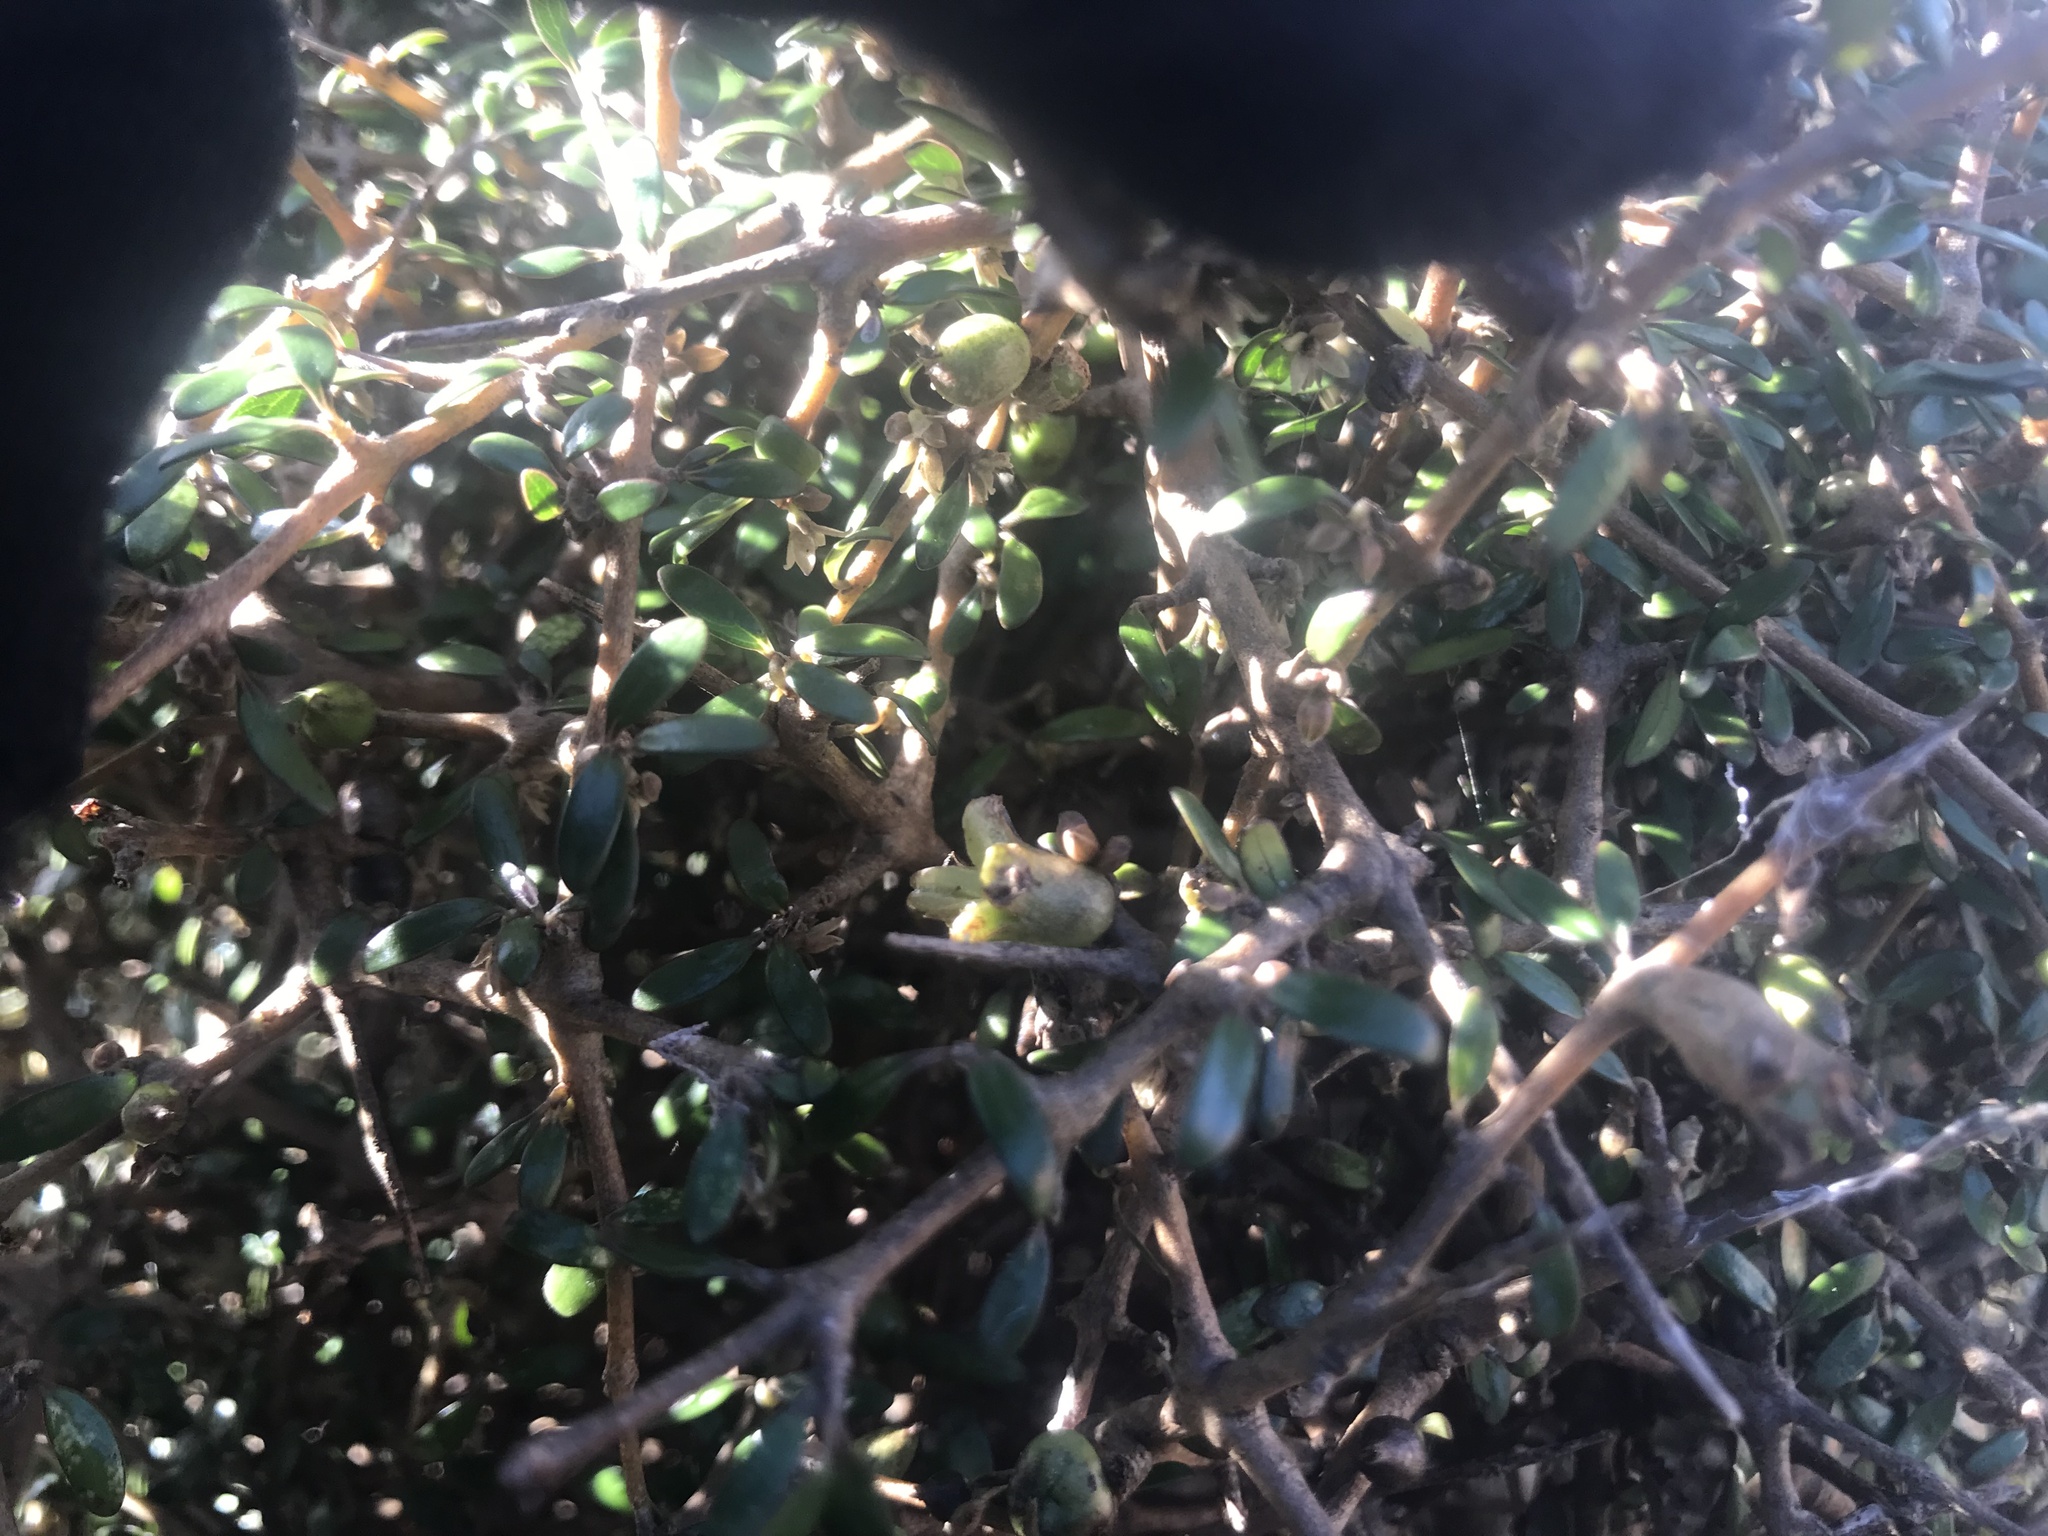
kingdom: Plantae
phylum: Tracheophyta
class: Magnoliopsida
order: Gentianales
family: Rubiaceae
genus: Coprosma
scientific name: Coprosma propinqua
